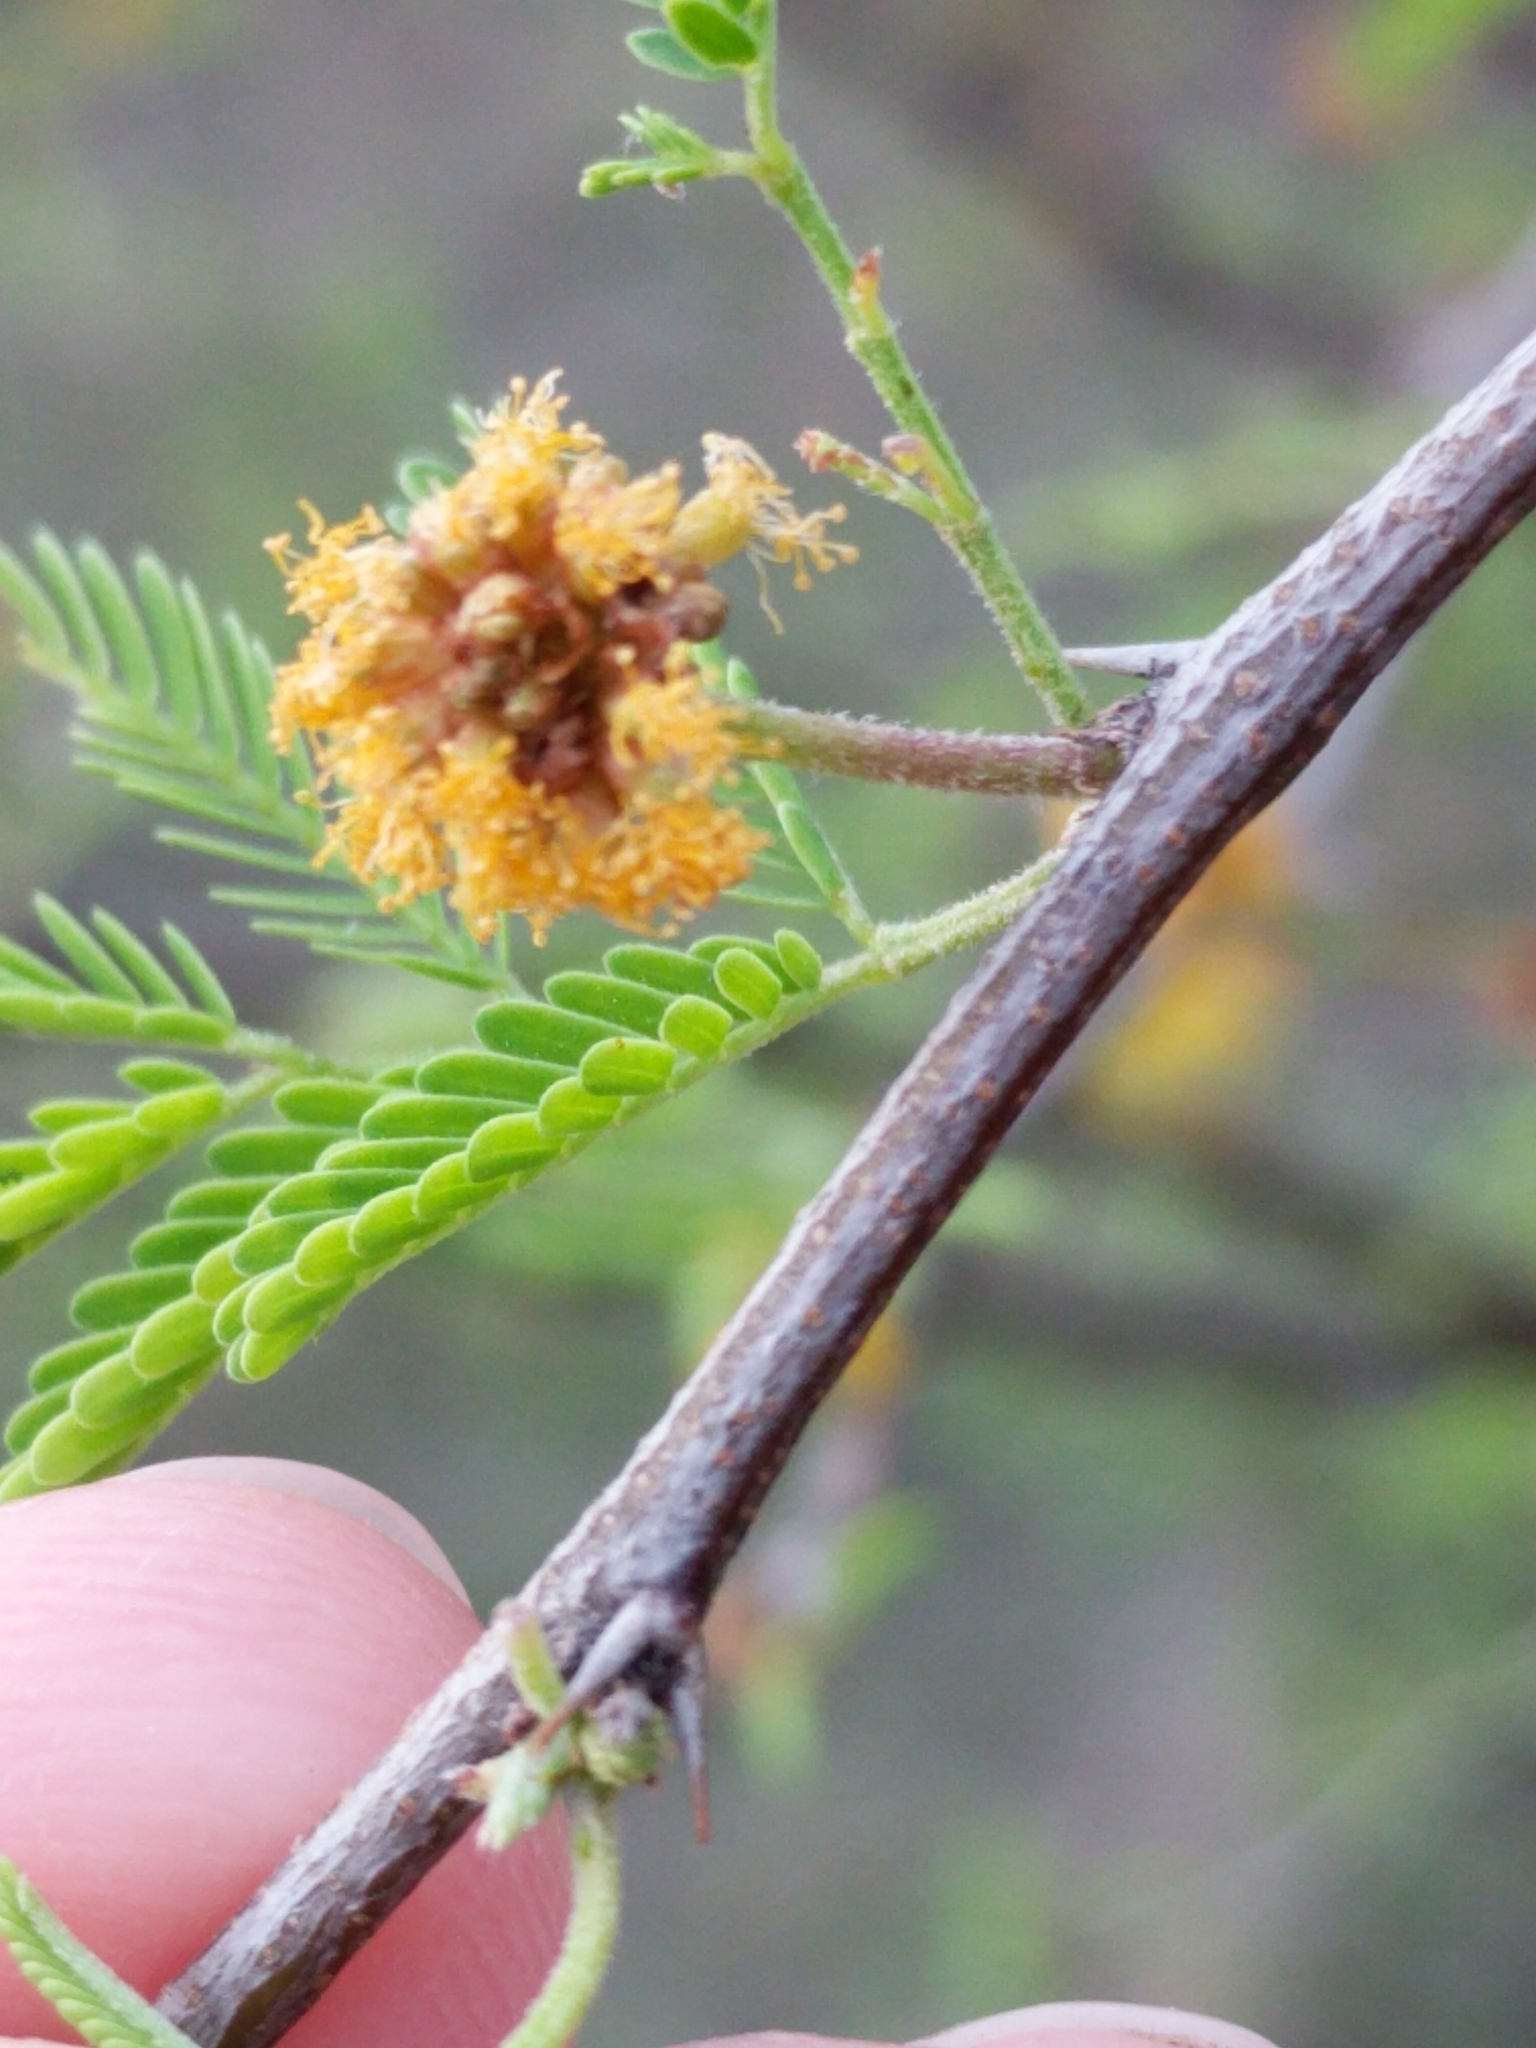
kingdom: Plantae
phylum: Tracheophyta
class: Magnoliopsida
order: Fabales
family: Fabaceae
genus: Vachellia
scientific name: Vachellia vernicosa
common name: Viscid acacia
